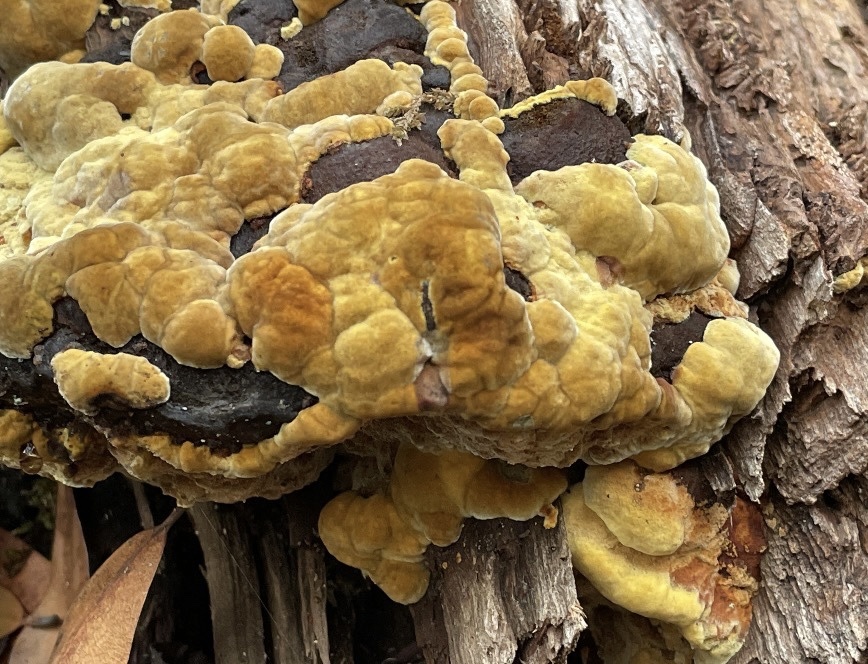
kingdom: Fungi
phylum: Basidiomycota
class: Agaricomycetes
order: Hymenochaetales
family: Hymenochaetaceae
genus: Phellinus
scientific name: Phellinus gilvus
